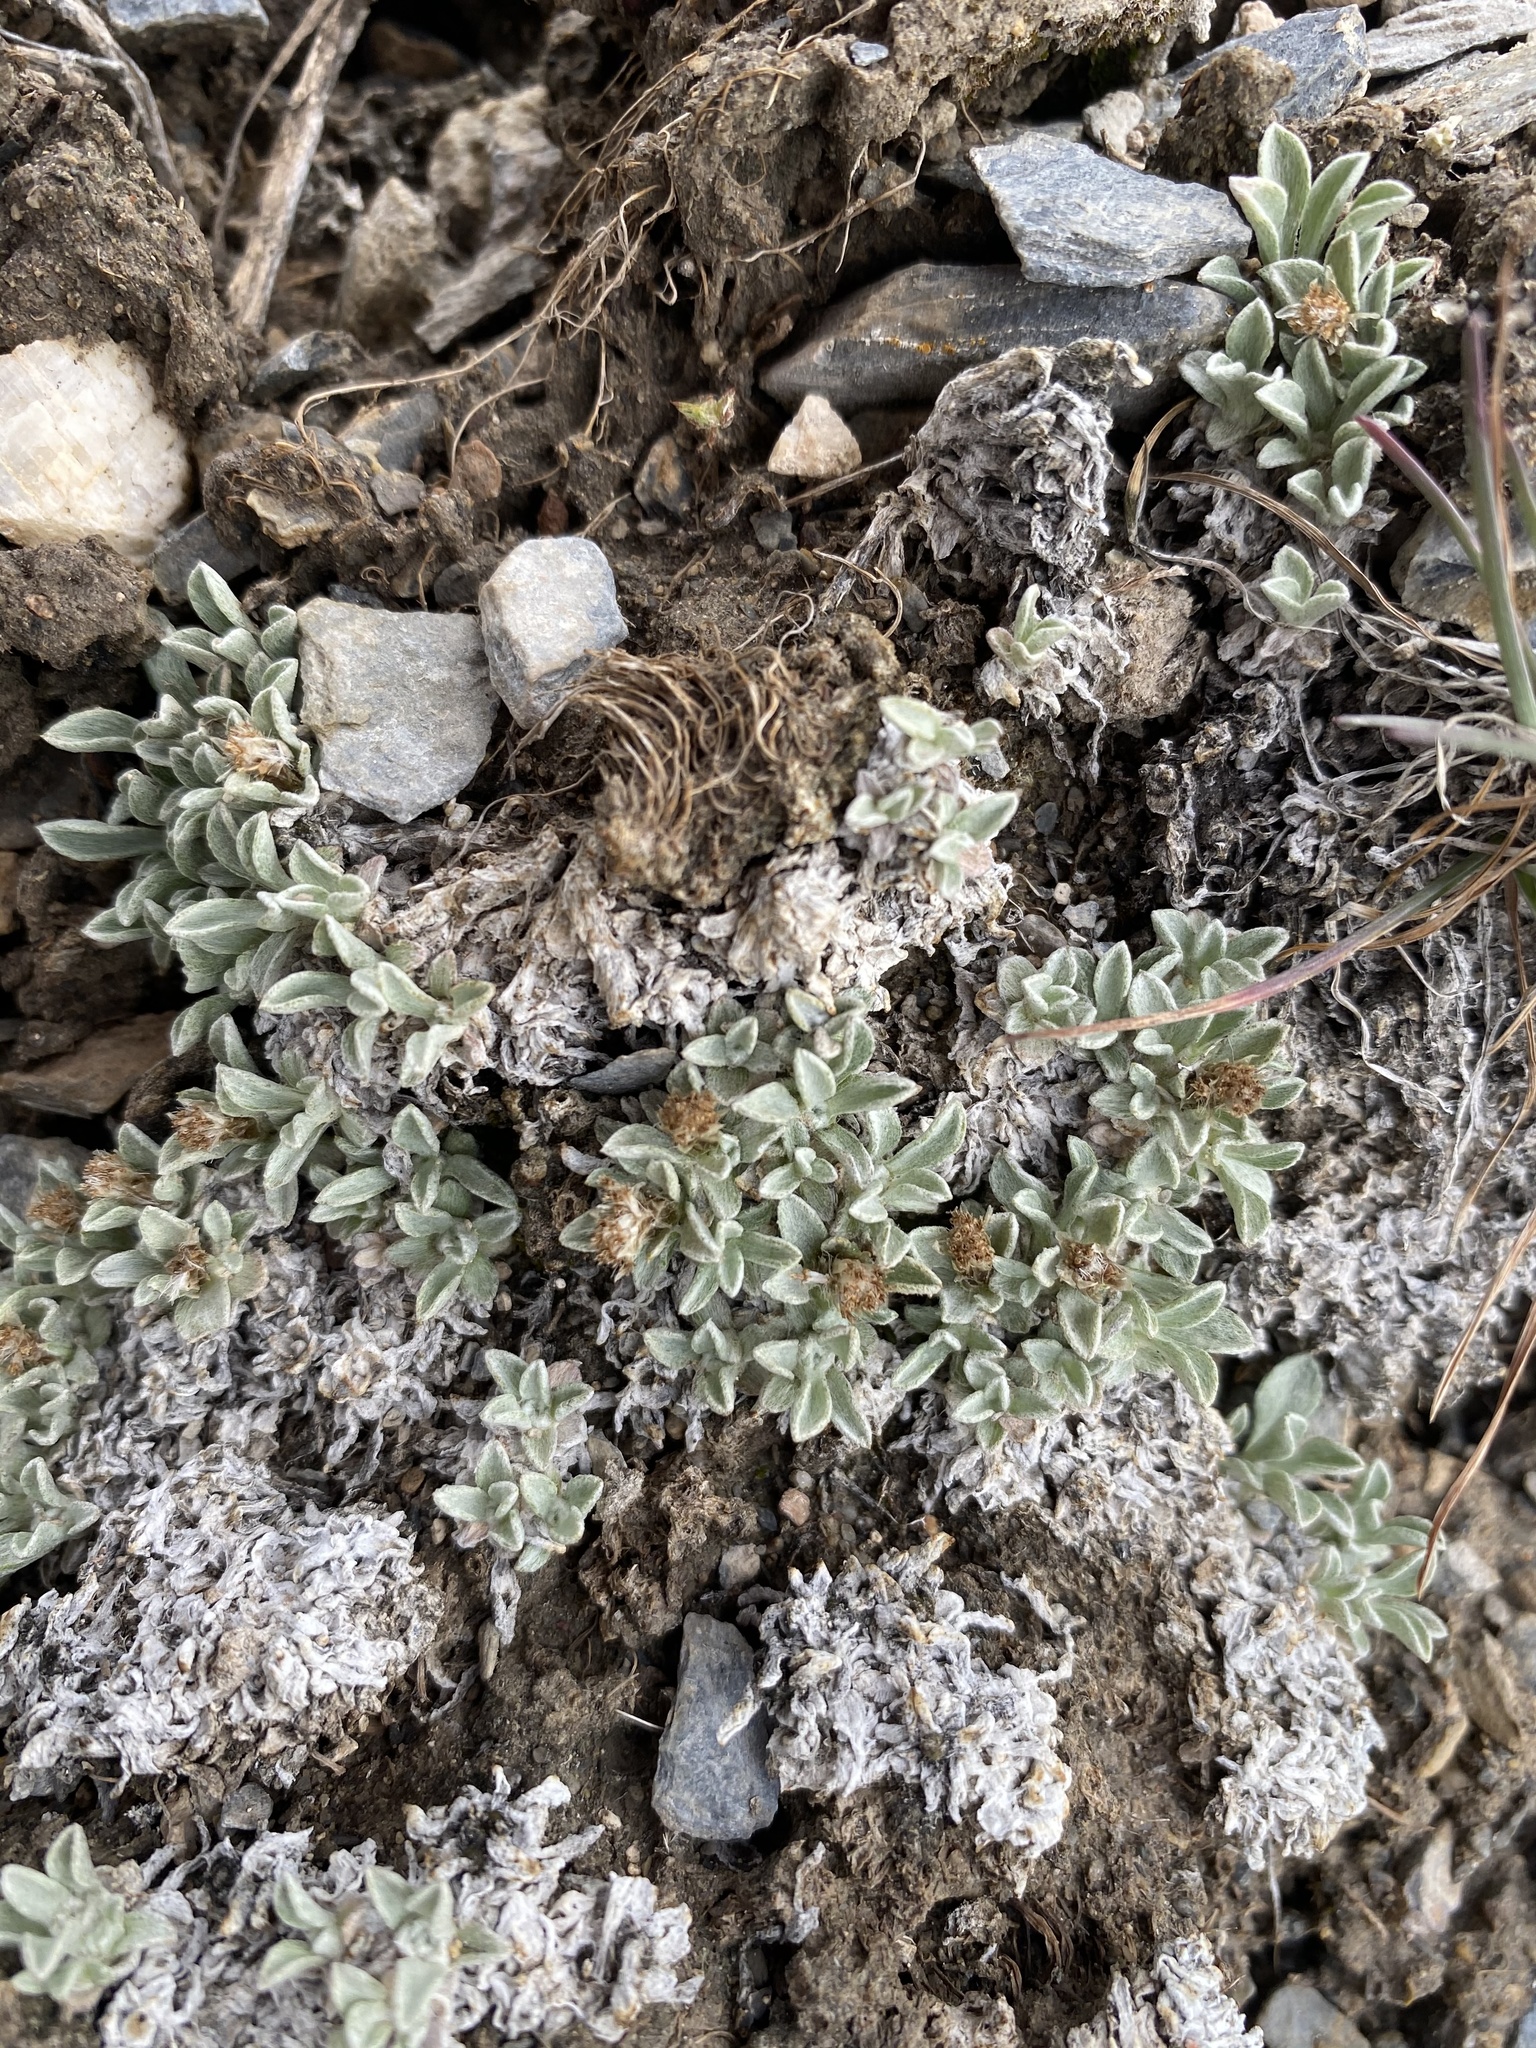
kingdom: Plantae
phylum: Tracheophyta
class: Magnoliopsida
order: Asterales
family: Asteraceae
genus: Antennaria
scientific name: Antennaria dimorpha
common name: Cushion pussytoes
